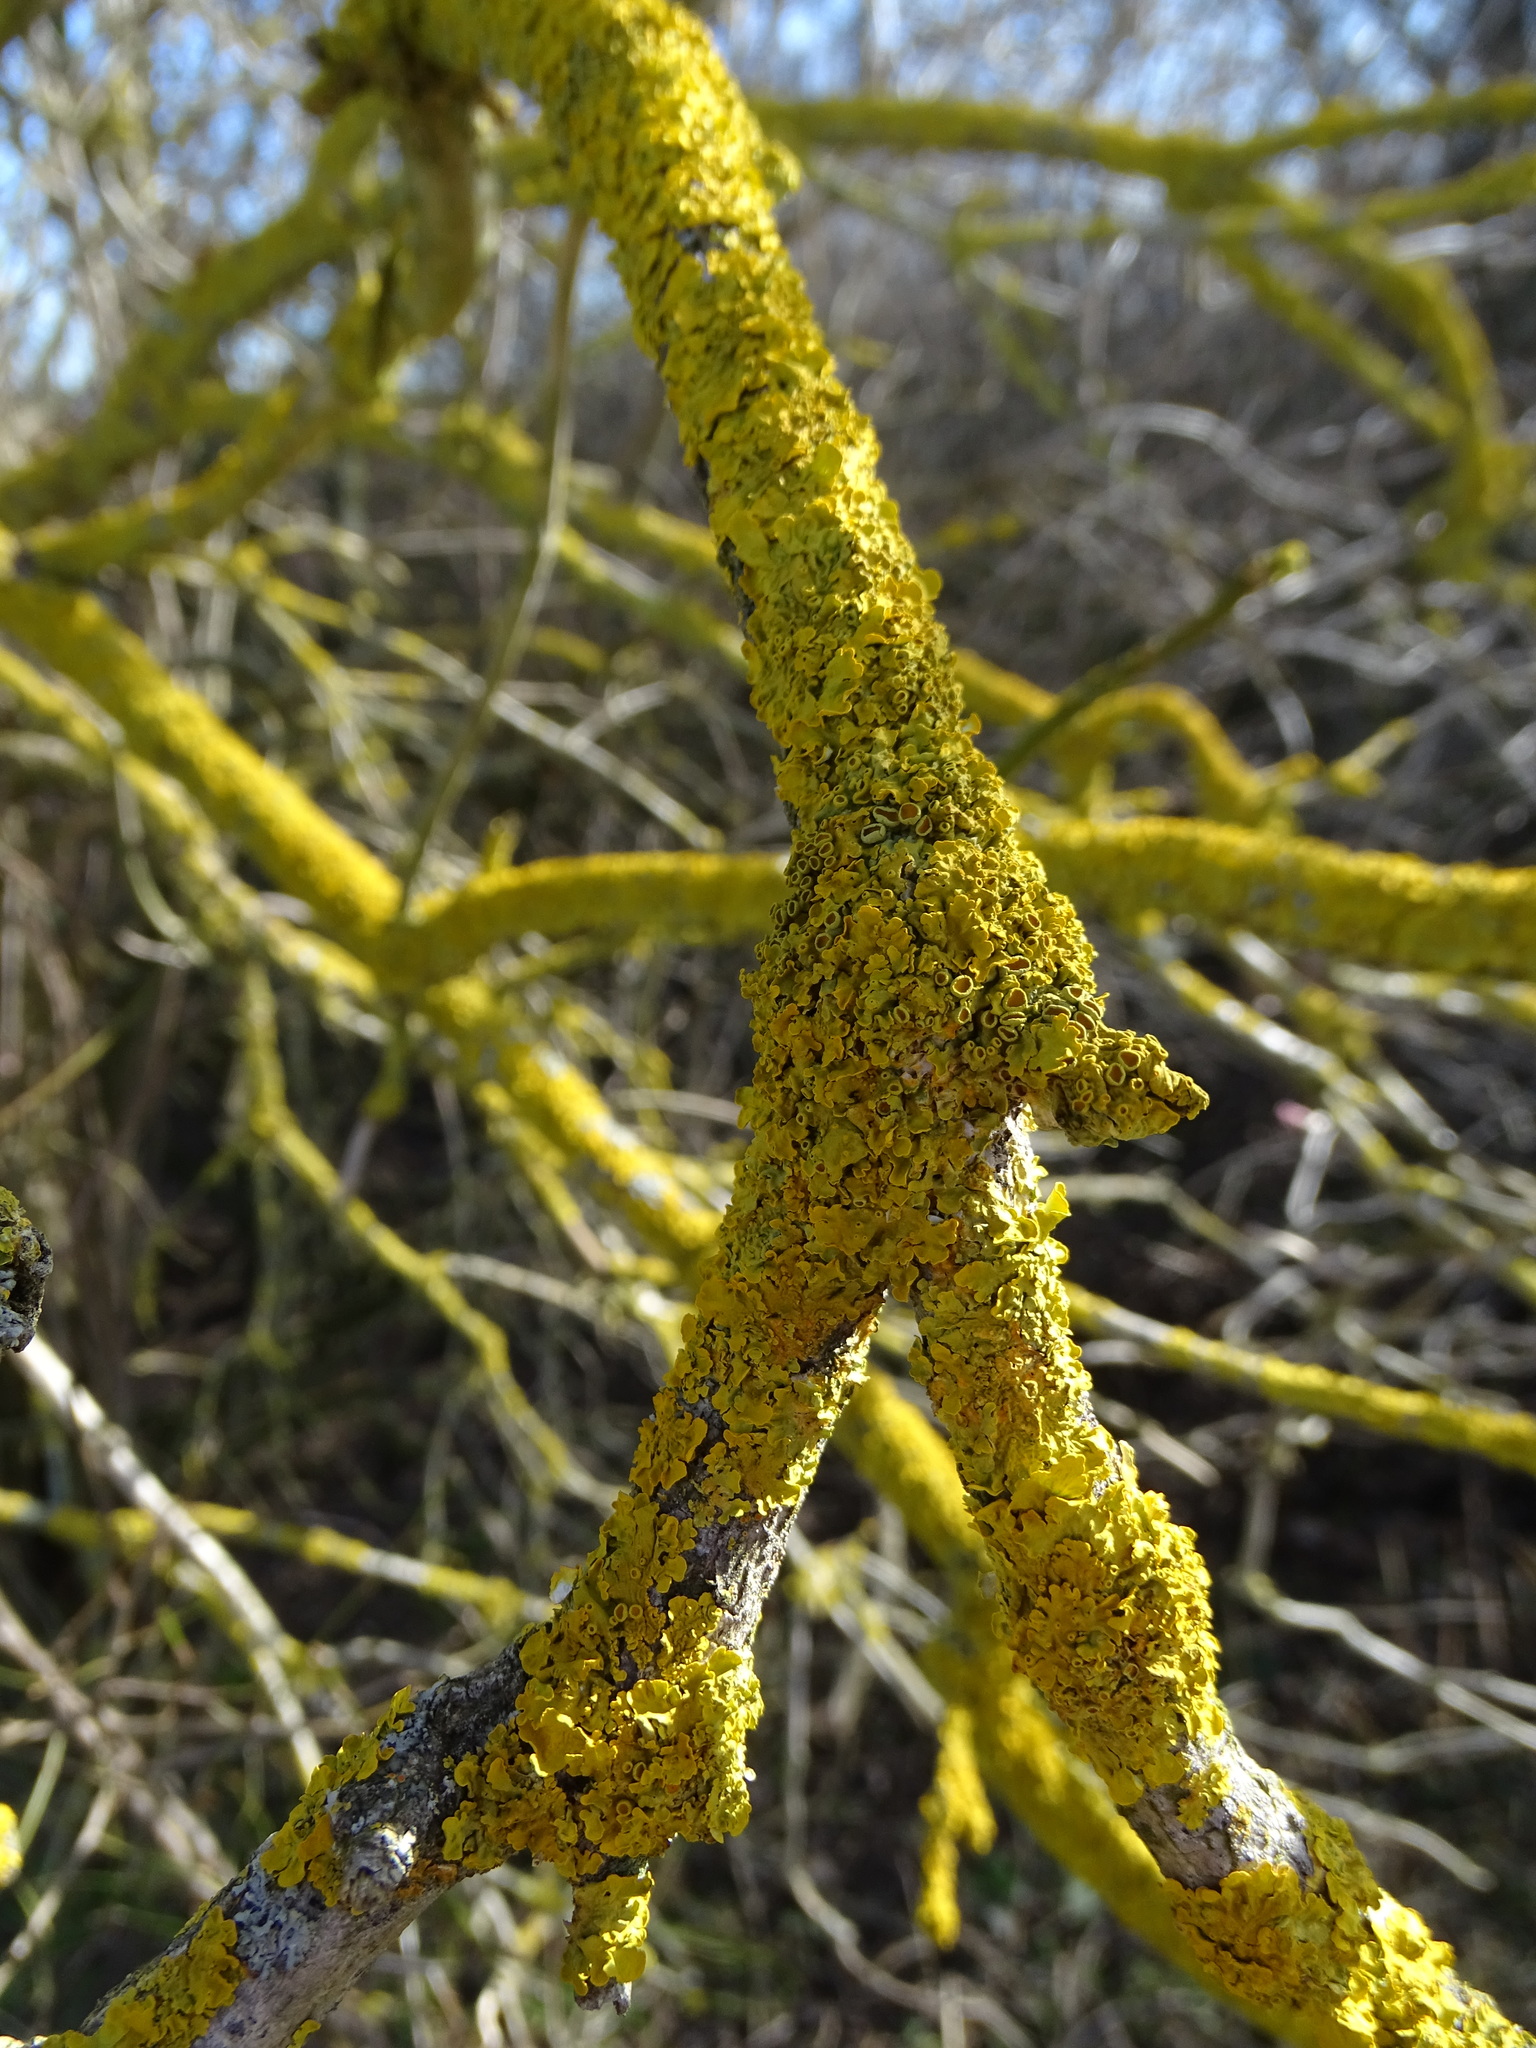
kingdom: Fungi
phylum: Ascomycota
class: Lecanoromycetes
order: Teloschistales
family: Teloschistaceae
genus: Xanthoria
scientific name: Xanthoria parietina
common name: Common orange lichen
